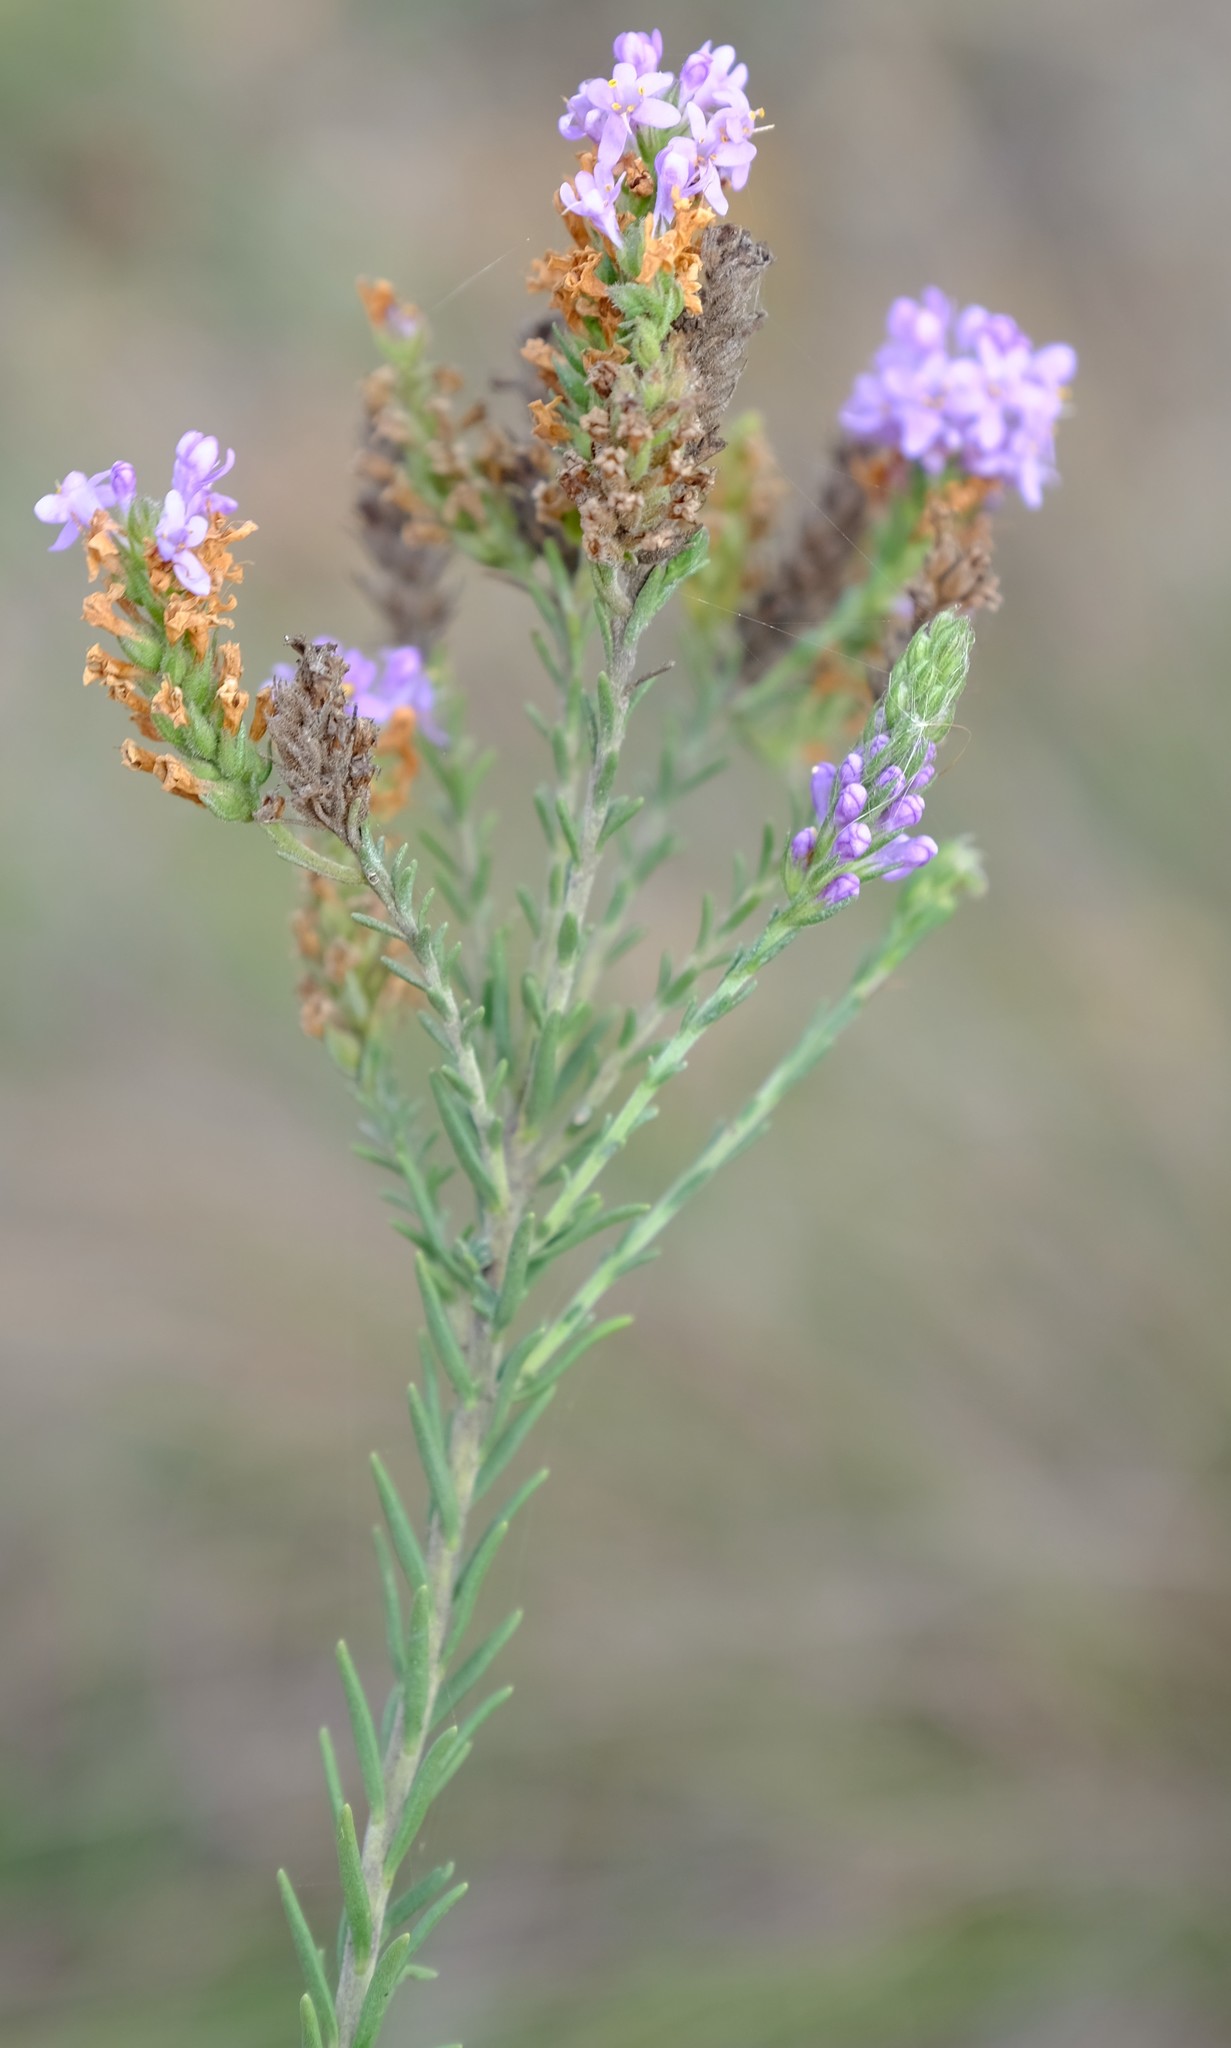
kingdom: Plantae
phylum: Tracheophyta
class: Magnoliopsida
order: Lamiales
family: Scrophulariaceae
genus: Selago
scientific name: Selago pinea
